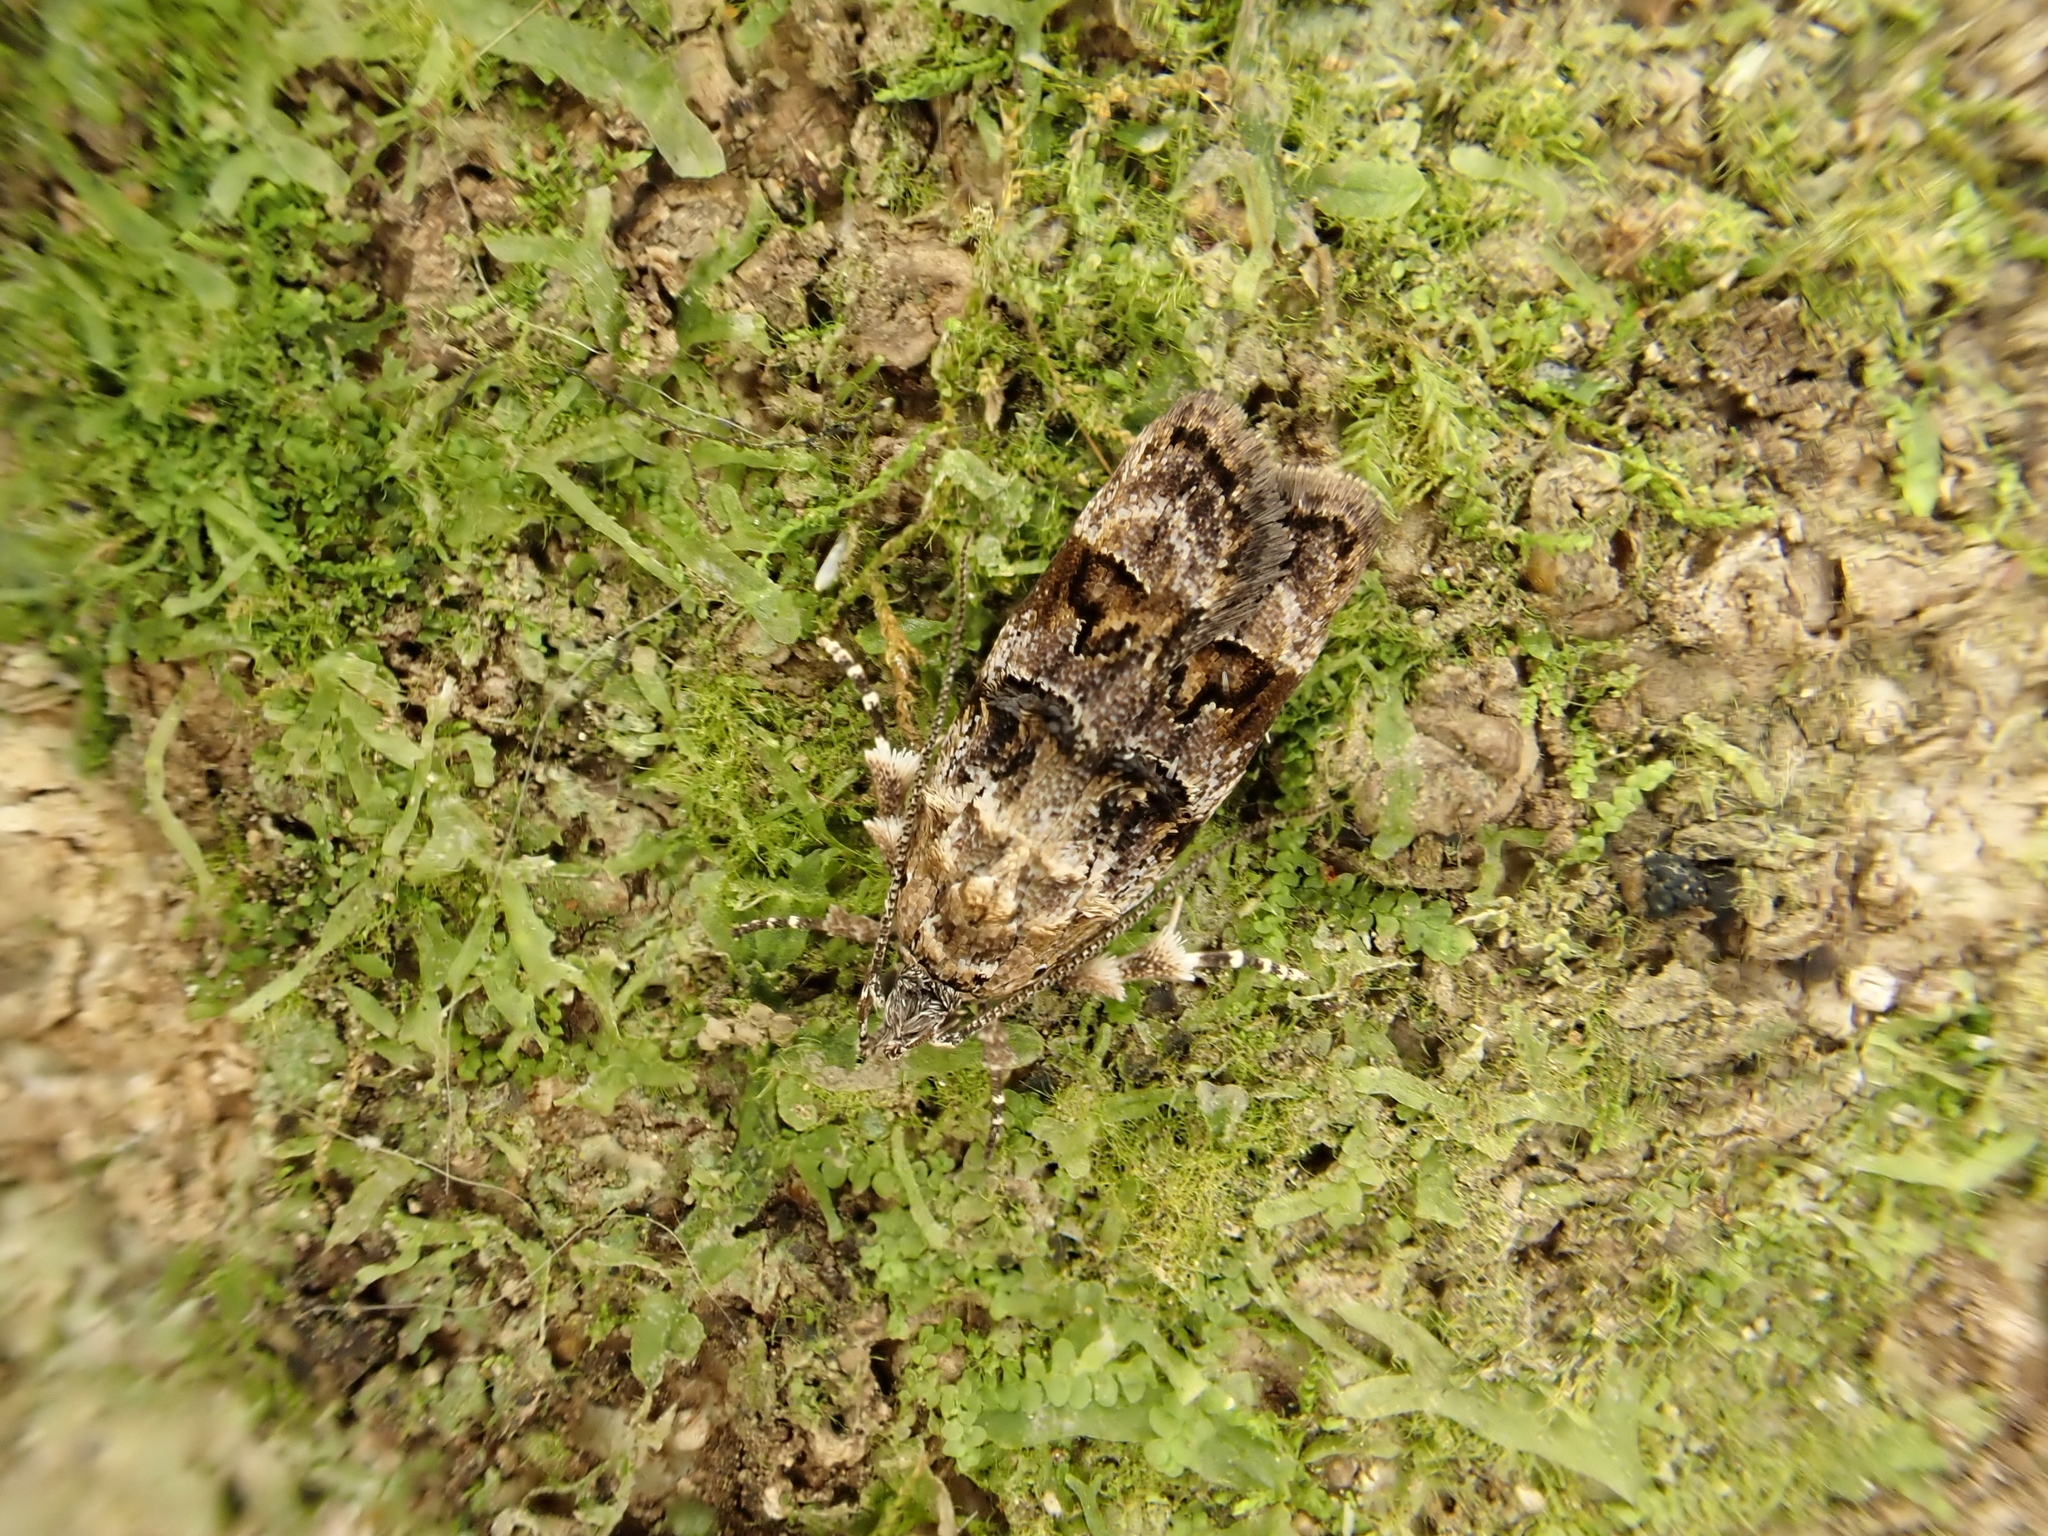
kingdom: Animalia
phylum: Arthropoda
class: Insecta
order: Lepidoptera
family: Oecophoridae
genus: Izatha
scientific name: Izatha metadelta
